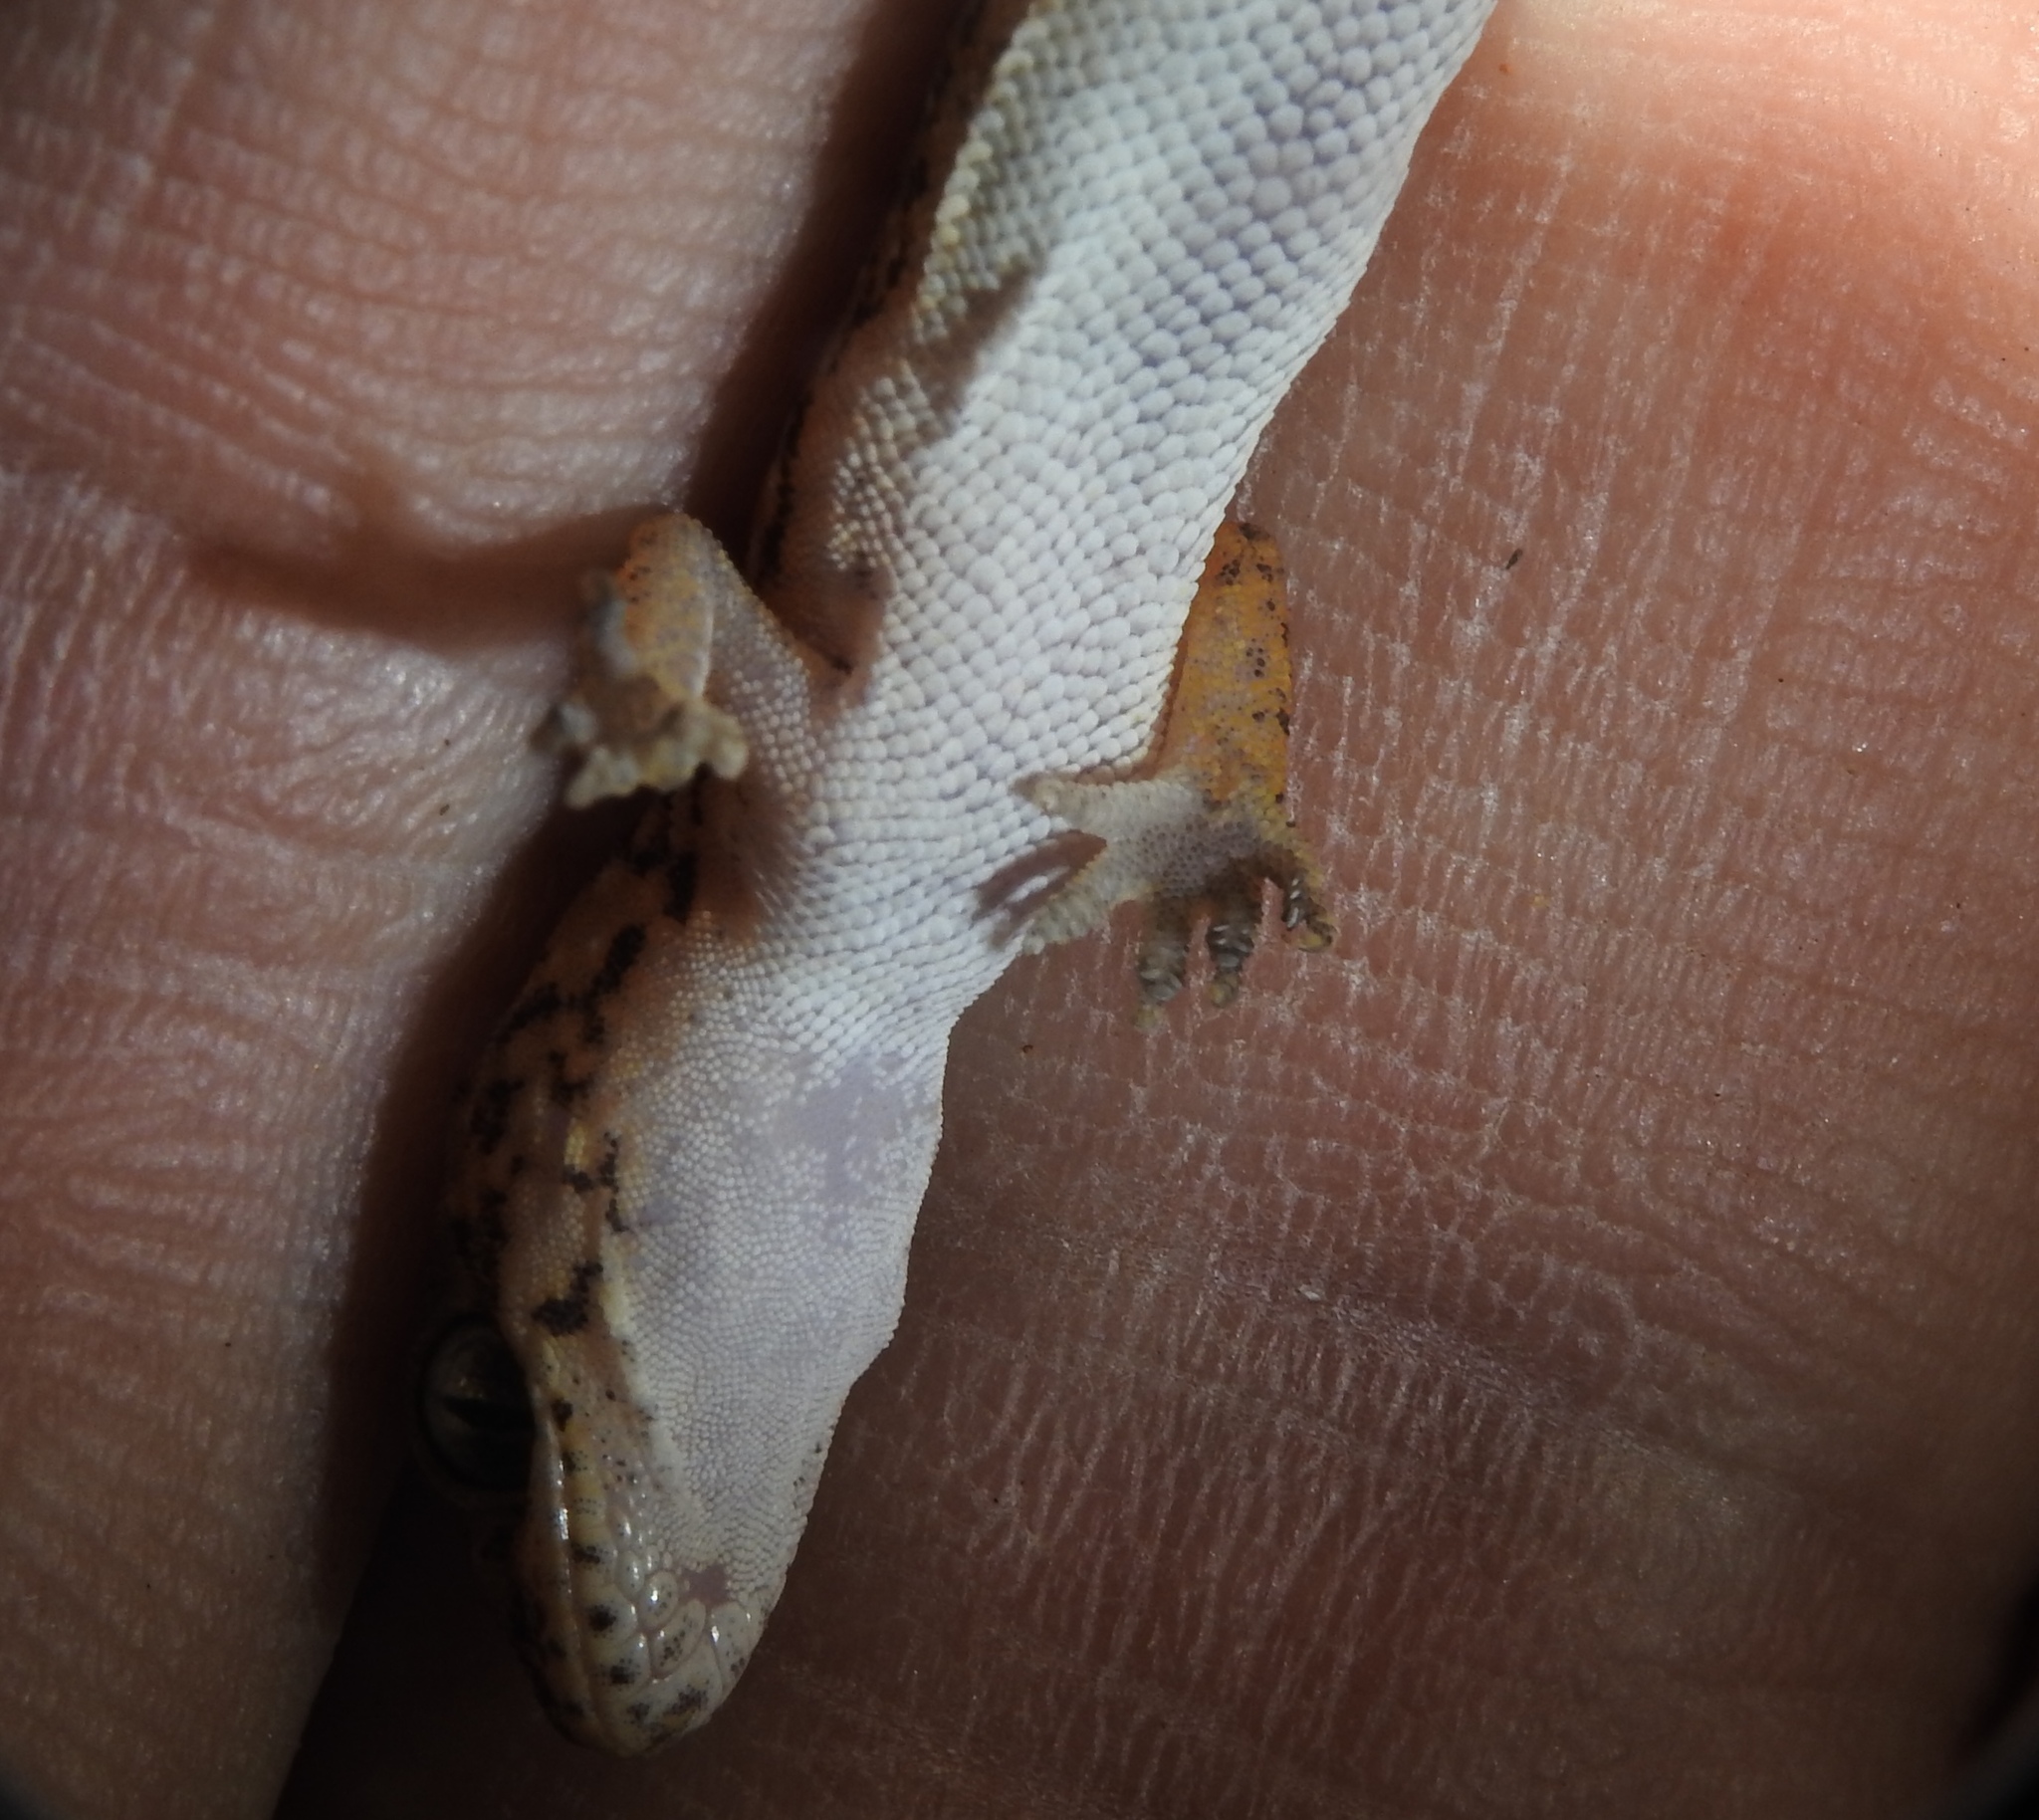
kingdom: Animalia
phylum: Chordata
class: Squamata
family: Gekkonidae
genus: Hemidactylus
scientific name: Hemidactylus scabriceps
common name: Scaly gecko
